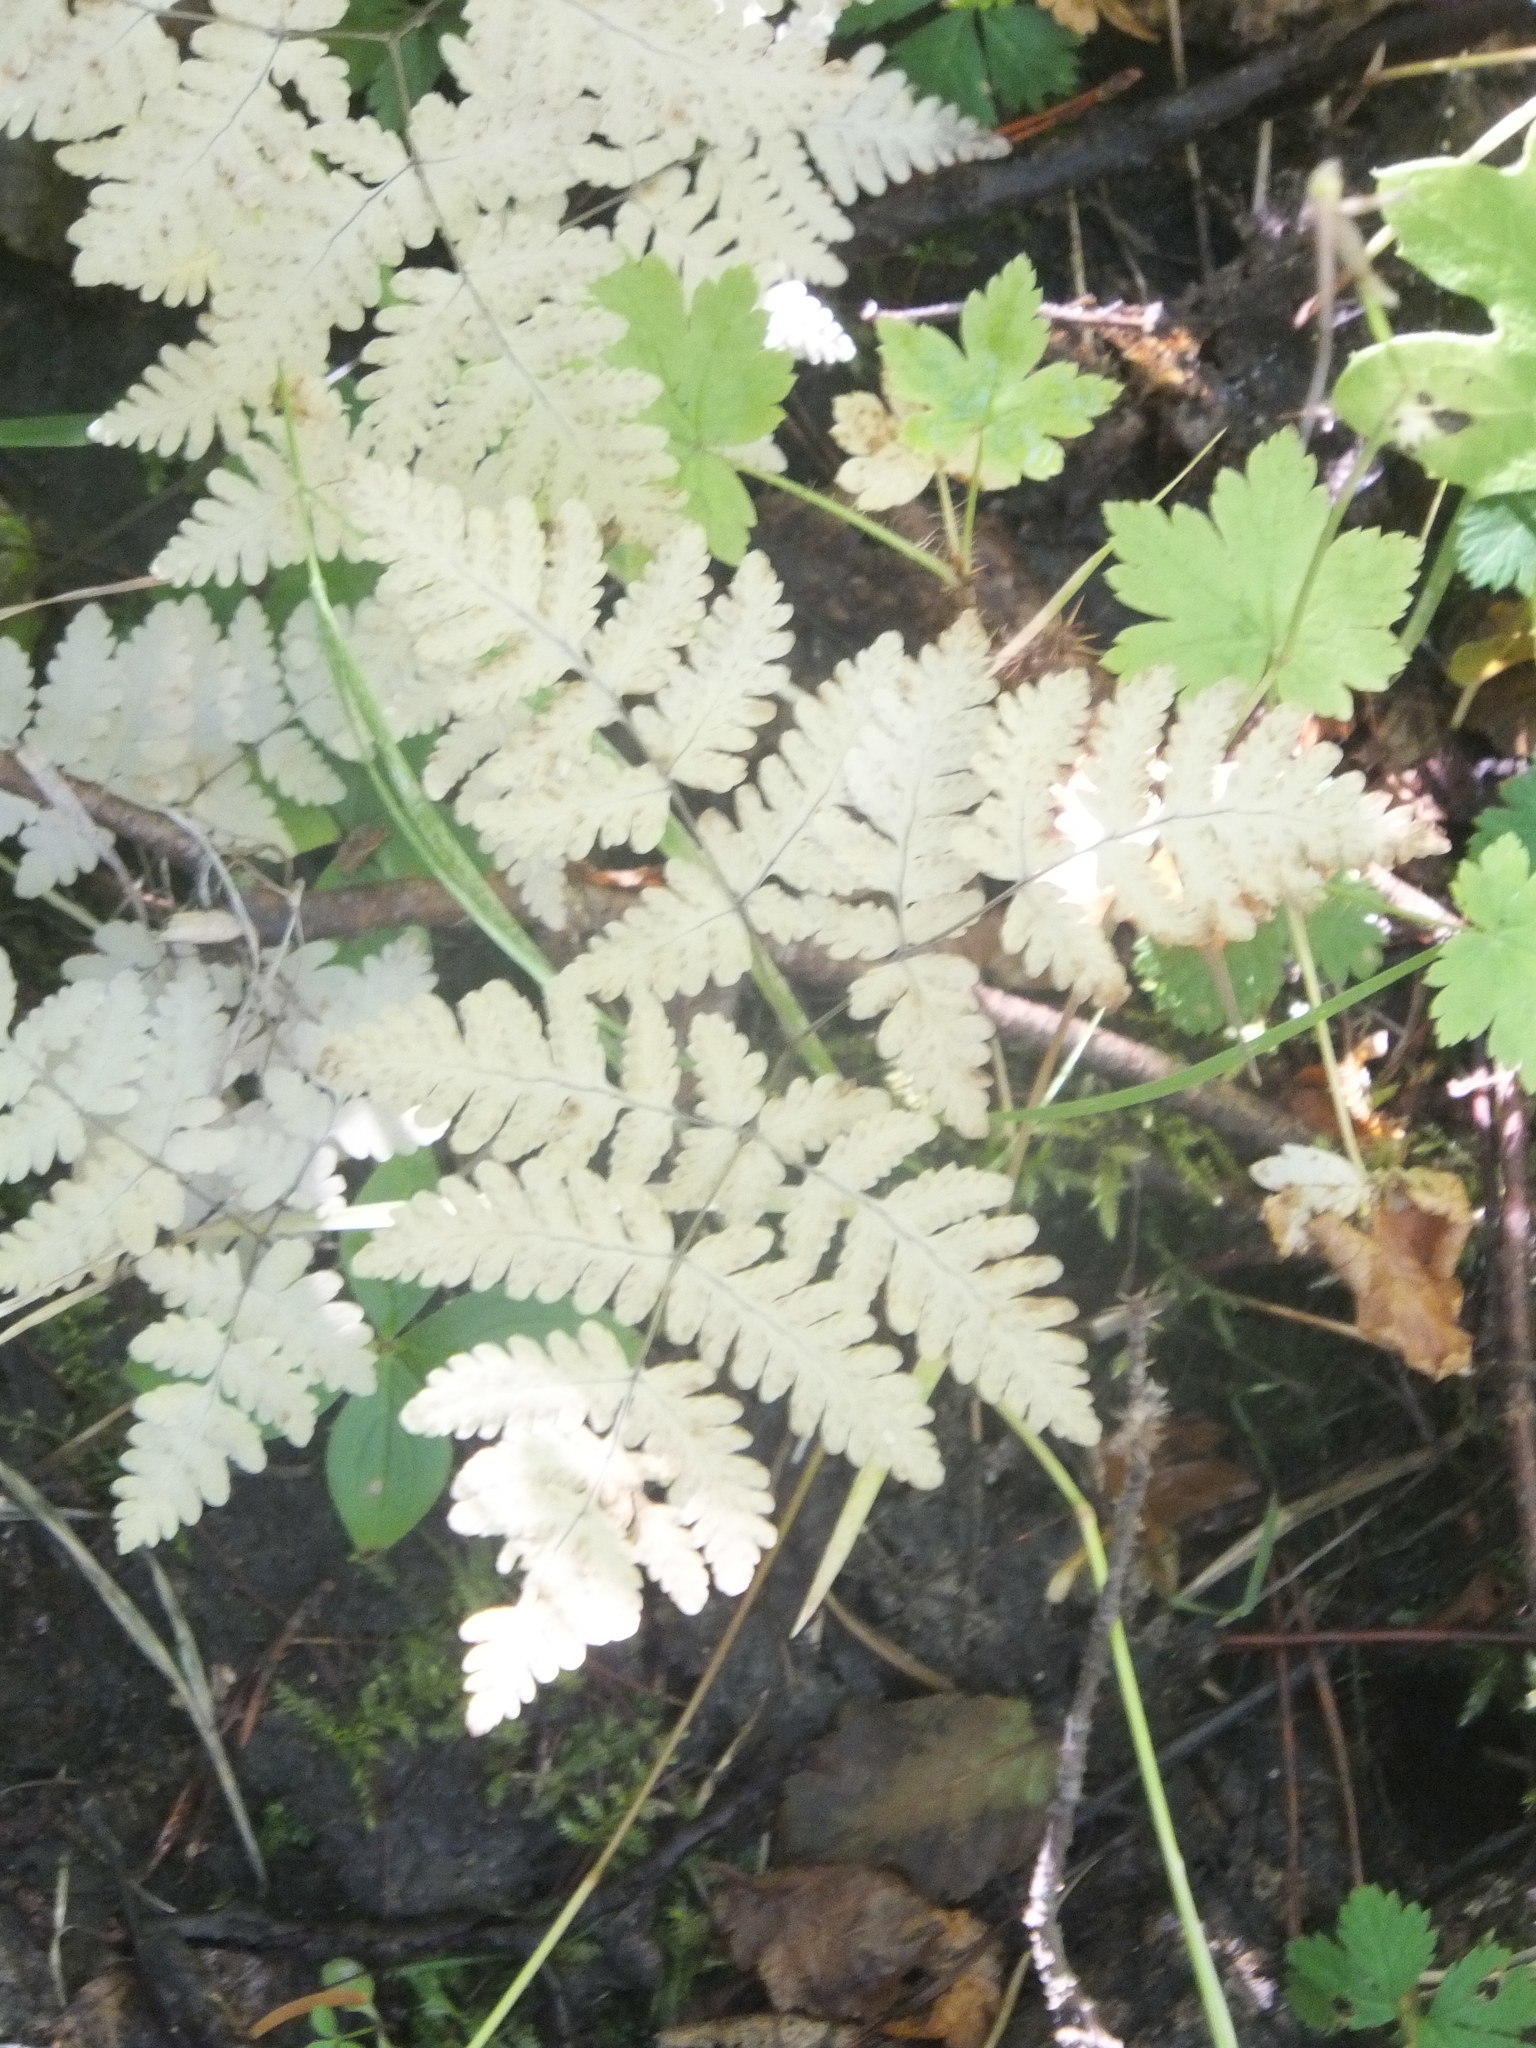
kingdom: Plantae
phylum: Tracheophyta
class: Polypodiopsida
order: Polypodiales
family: Cystopteridaceae
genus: Gymnocarpium
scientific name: Gymnocarpium dryopteris
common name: Oak fern
